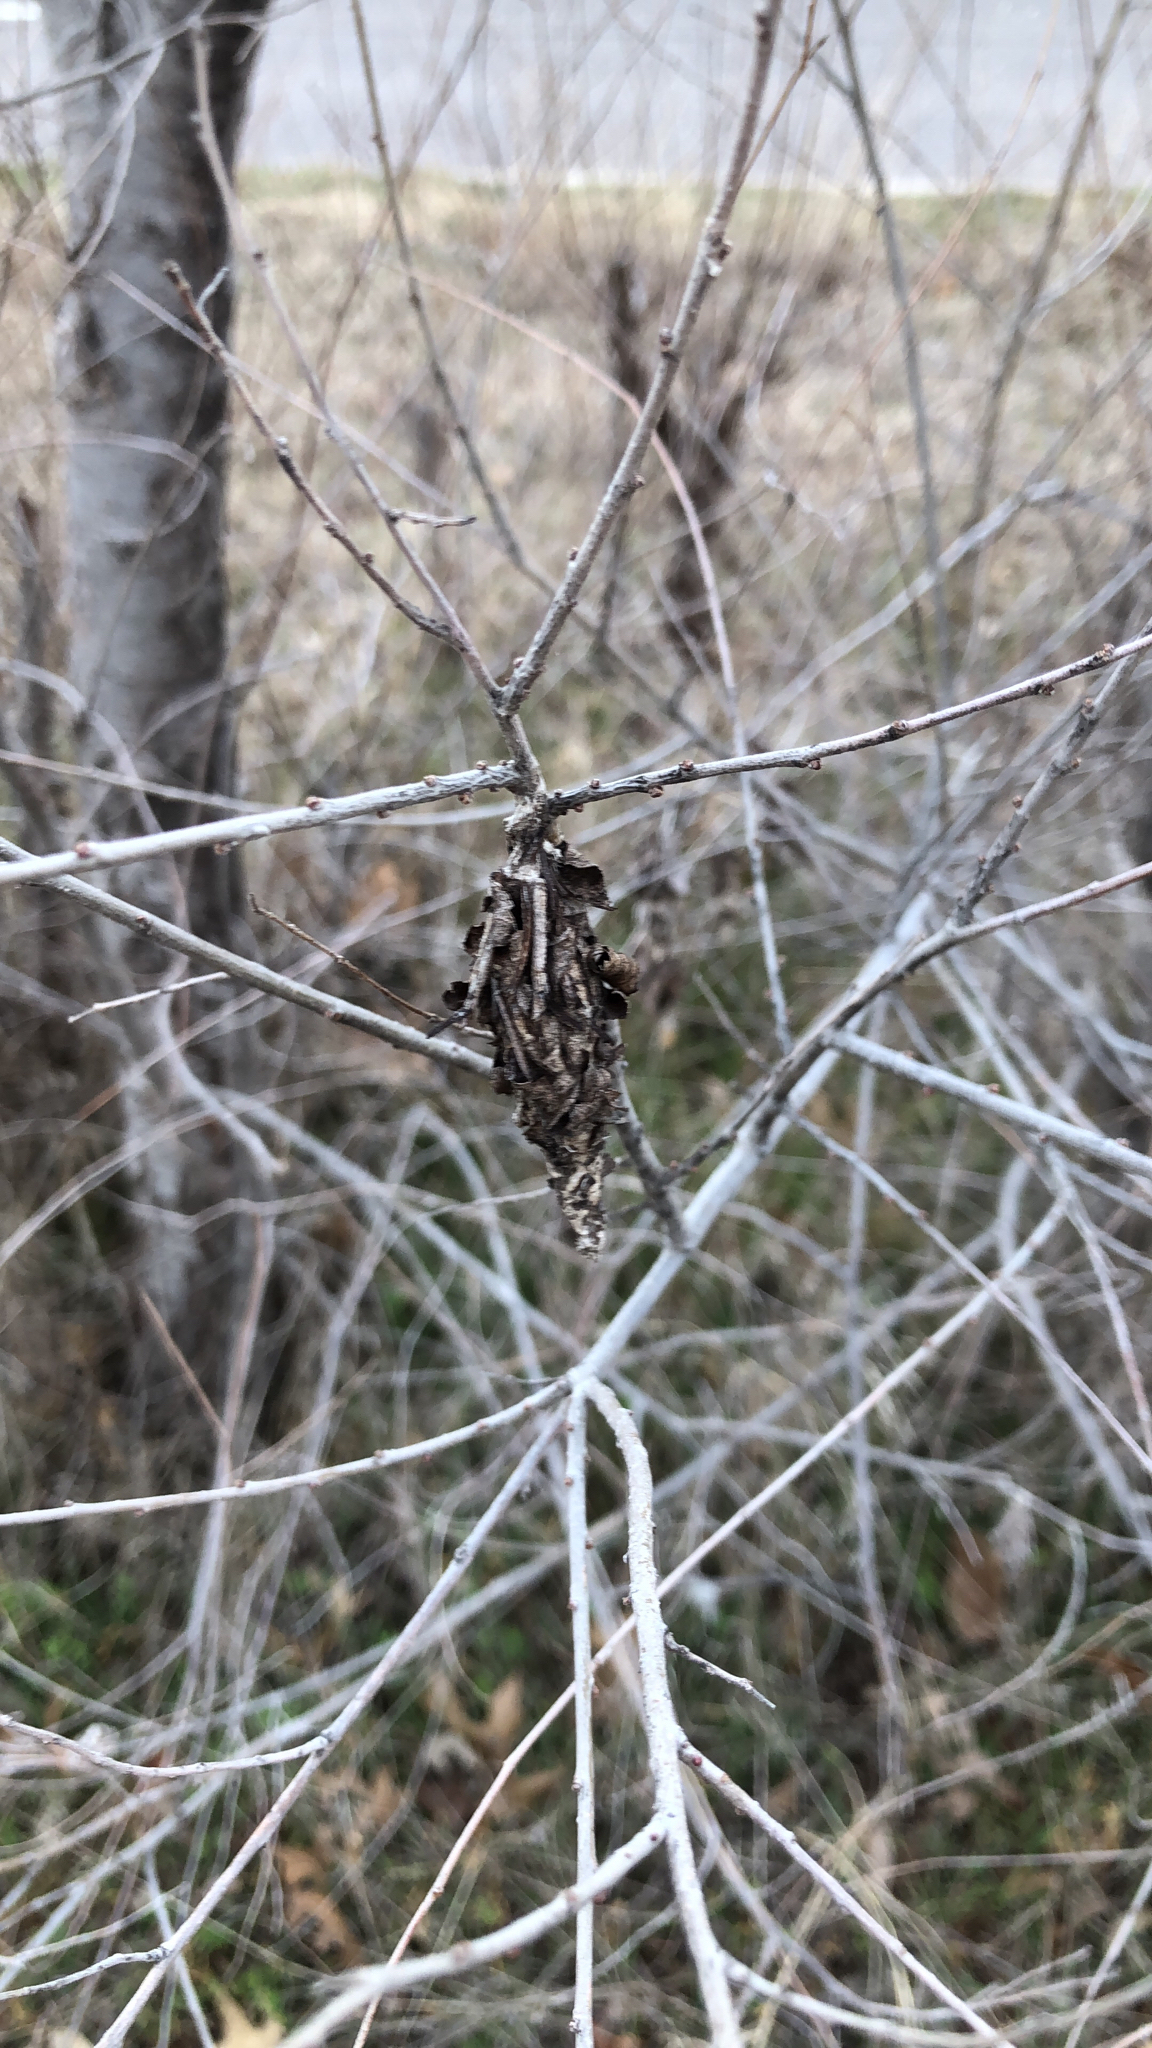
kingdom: Animalia
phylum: Arthropoda
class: Insecta
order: Lepidoptera
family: Psychidae
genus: Thyridopteryx
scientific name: Thyridopteryx ephemeraeformis
